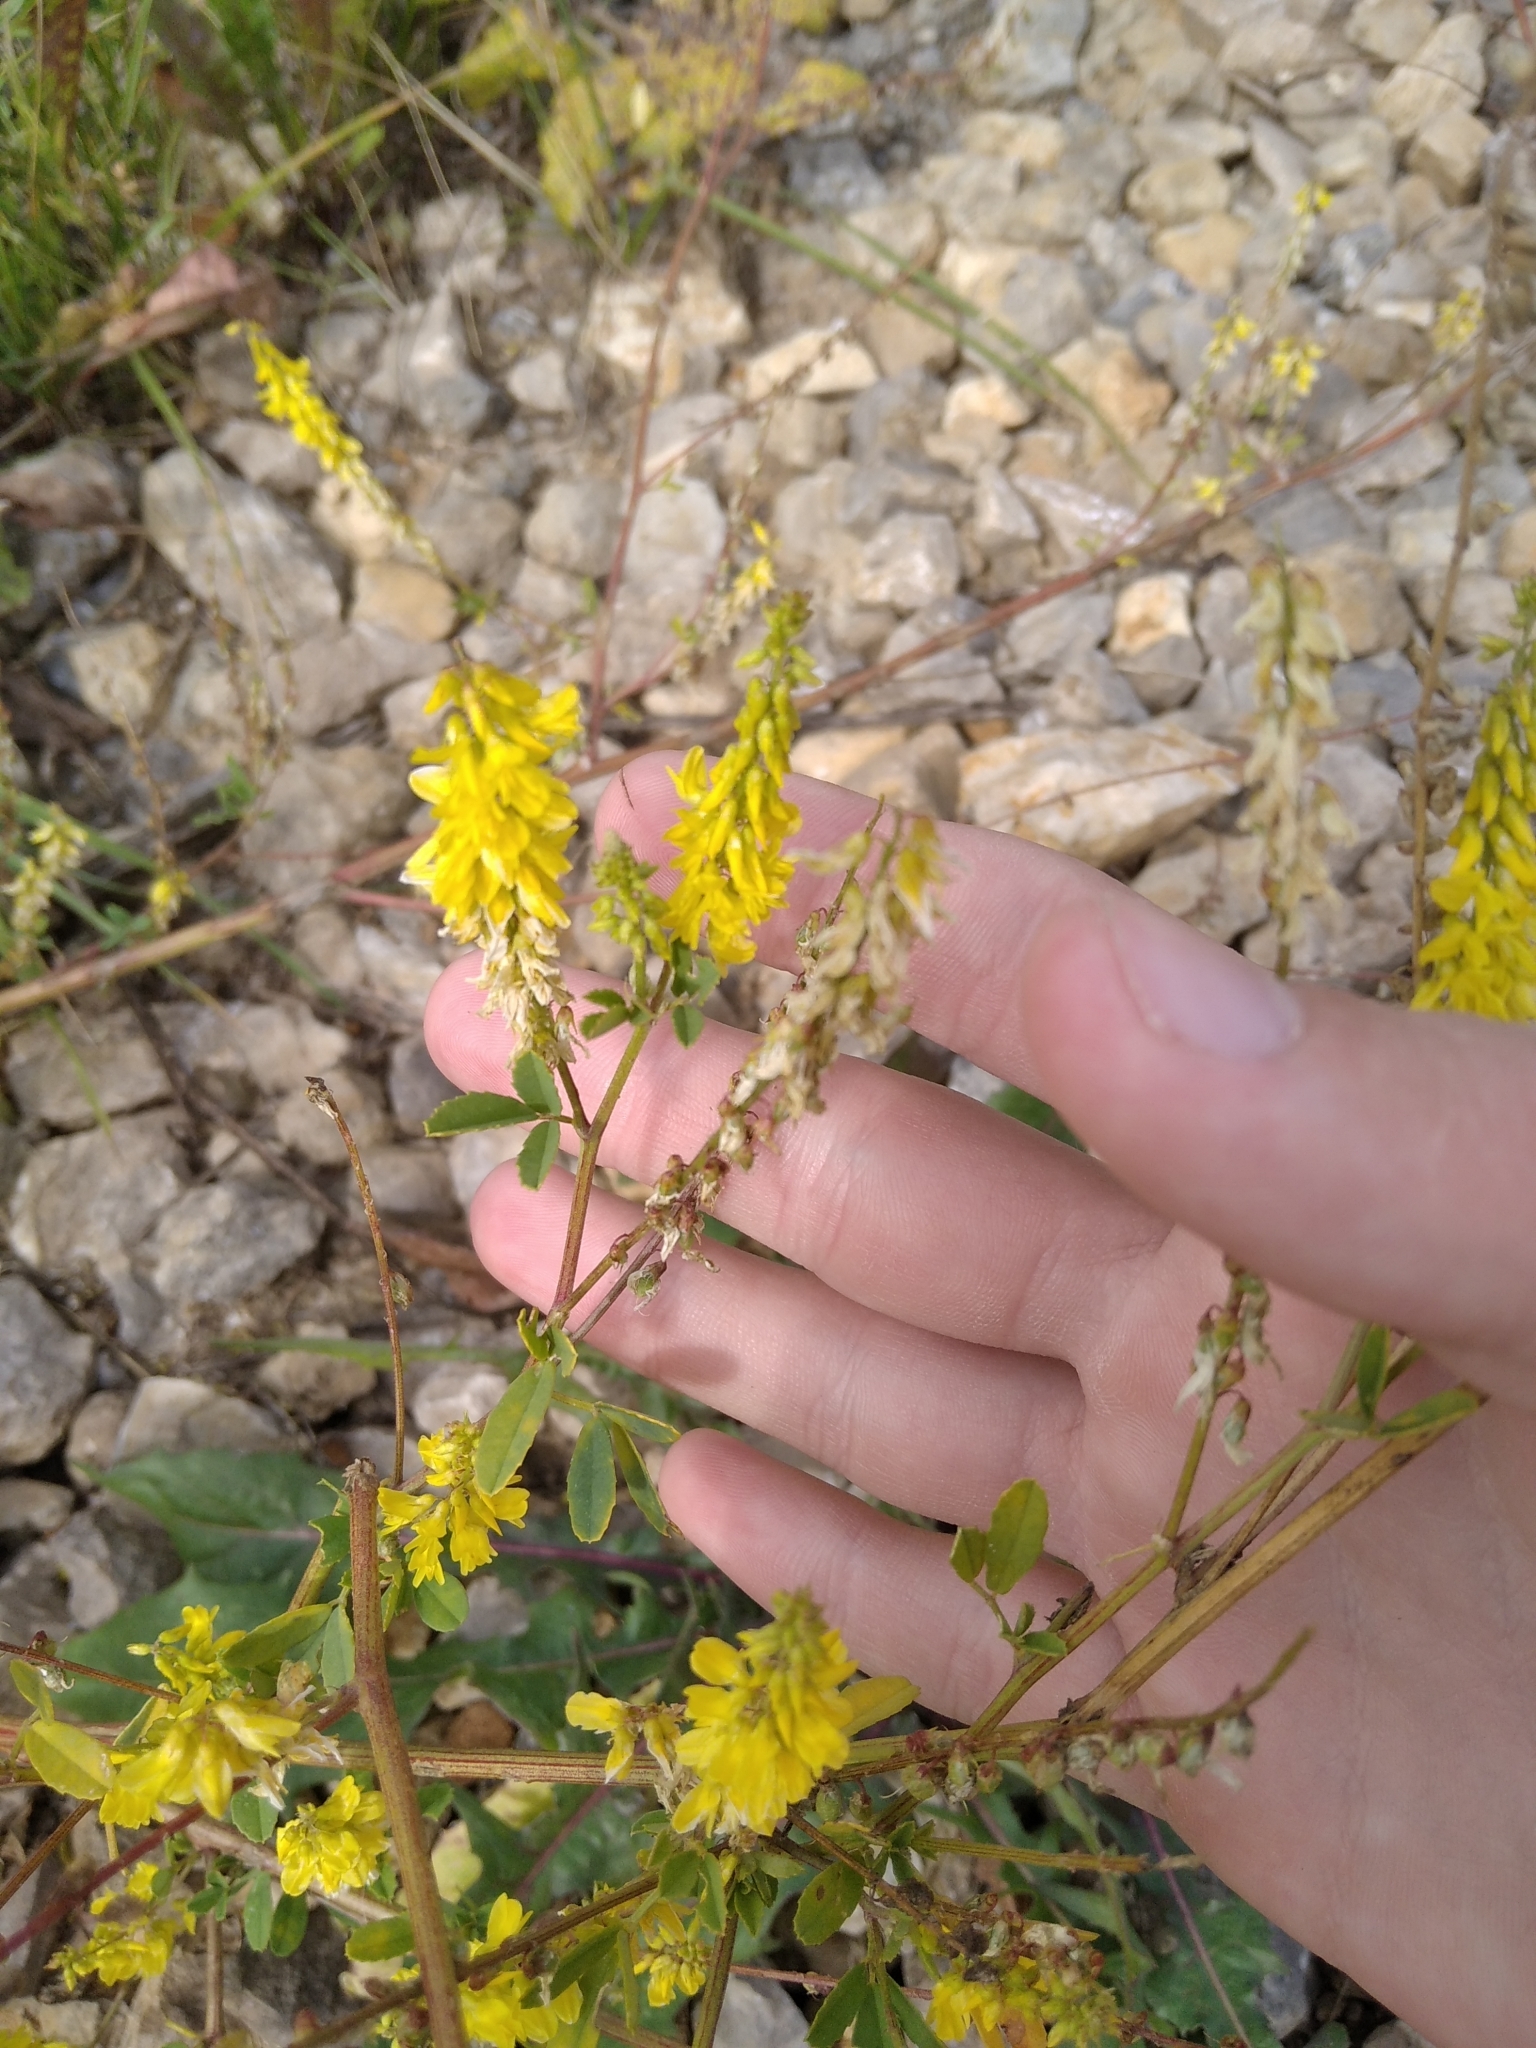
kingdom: Plantae
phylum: Tracheophyta
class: Magnoliopsida
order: Fabales
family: Fabaceae
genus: Melilotus
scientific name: Melilotus officinalis
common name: Sweetclover
